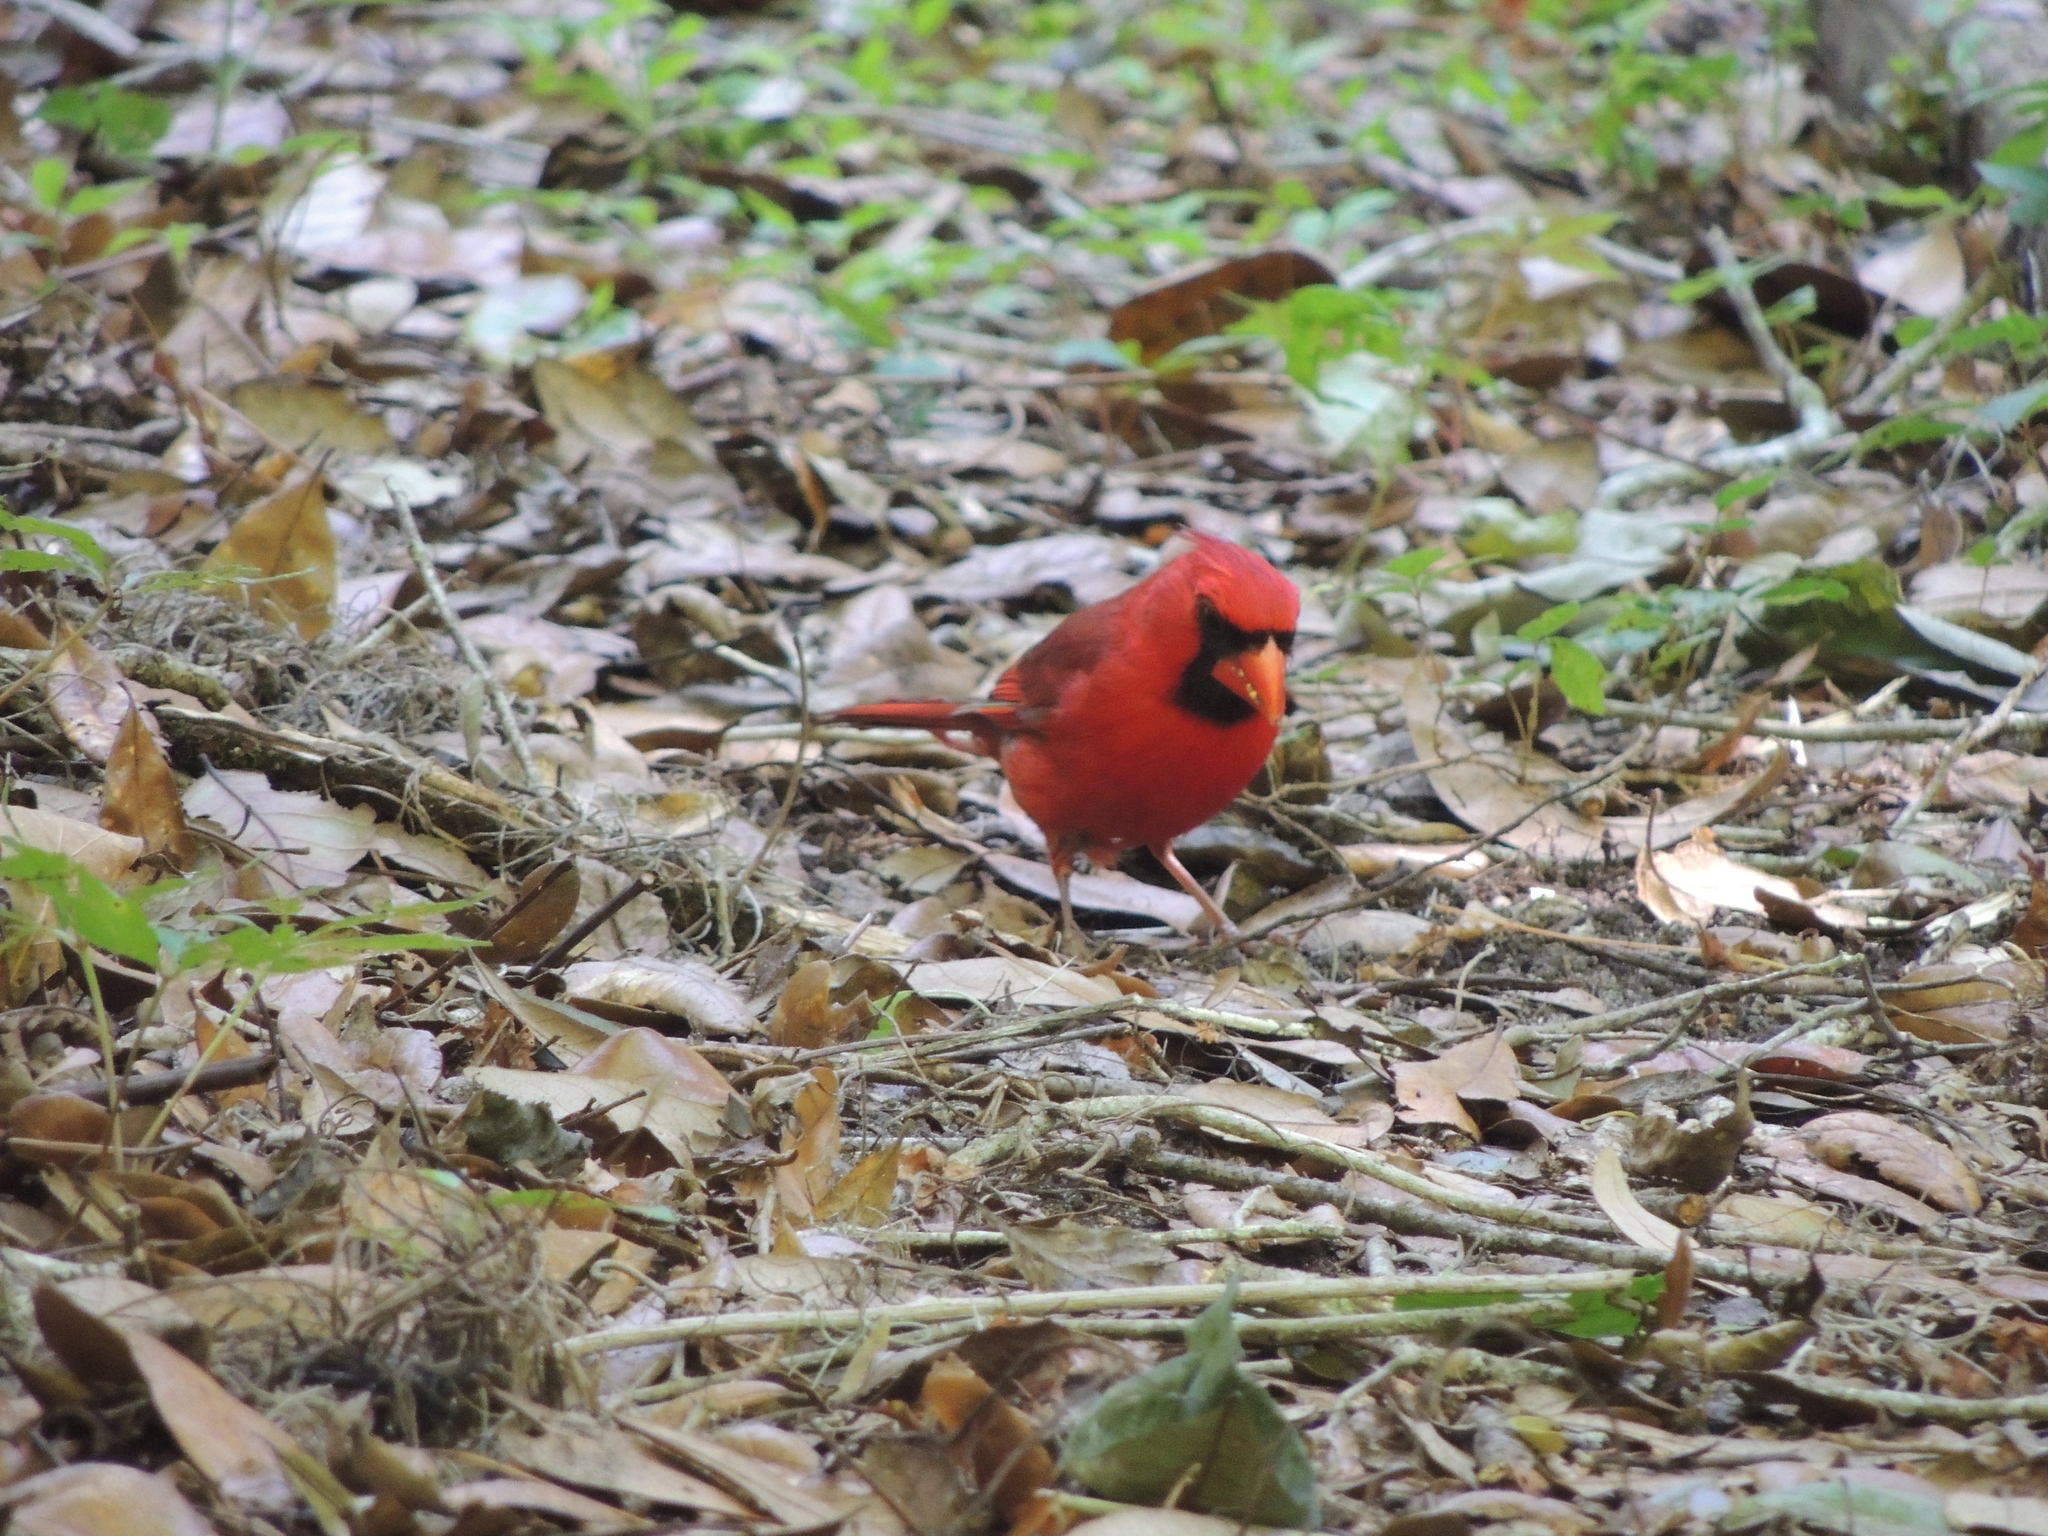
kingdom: Animalia
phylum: Chordata
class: Aves
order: Passeriformes
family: Cardinalidae
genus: Cardinalis
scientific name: Cardinalis cardinalis
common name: Northern cardinal
